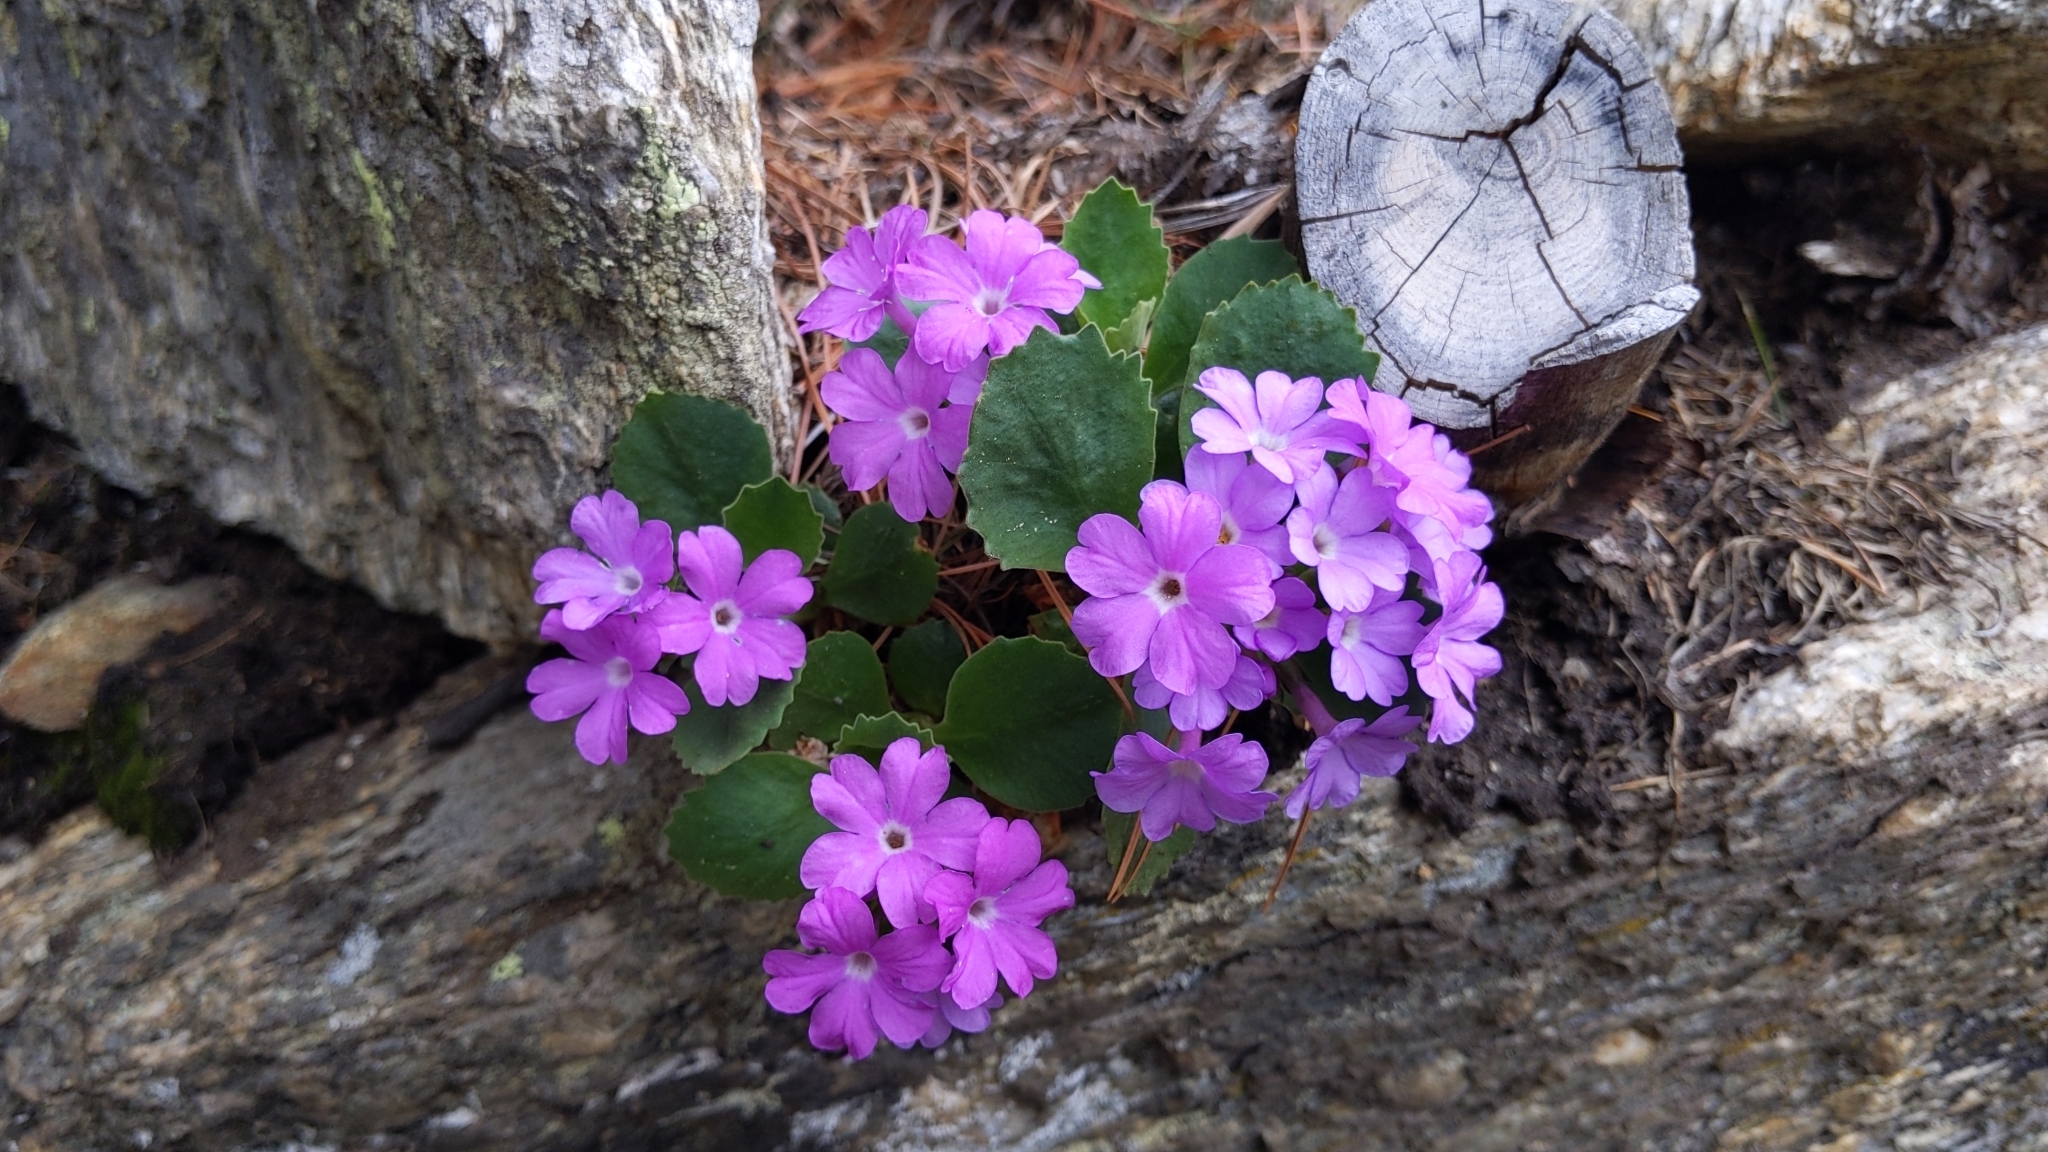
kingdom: Plantae
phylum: Tracheophyta
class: Magnoliopsida
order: Ericales
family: Primulaceae
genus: Primula
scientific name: Primula hirsuta
